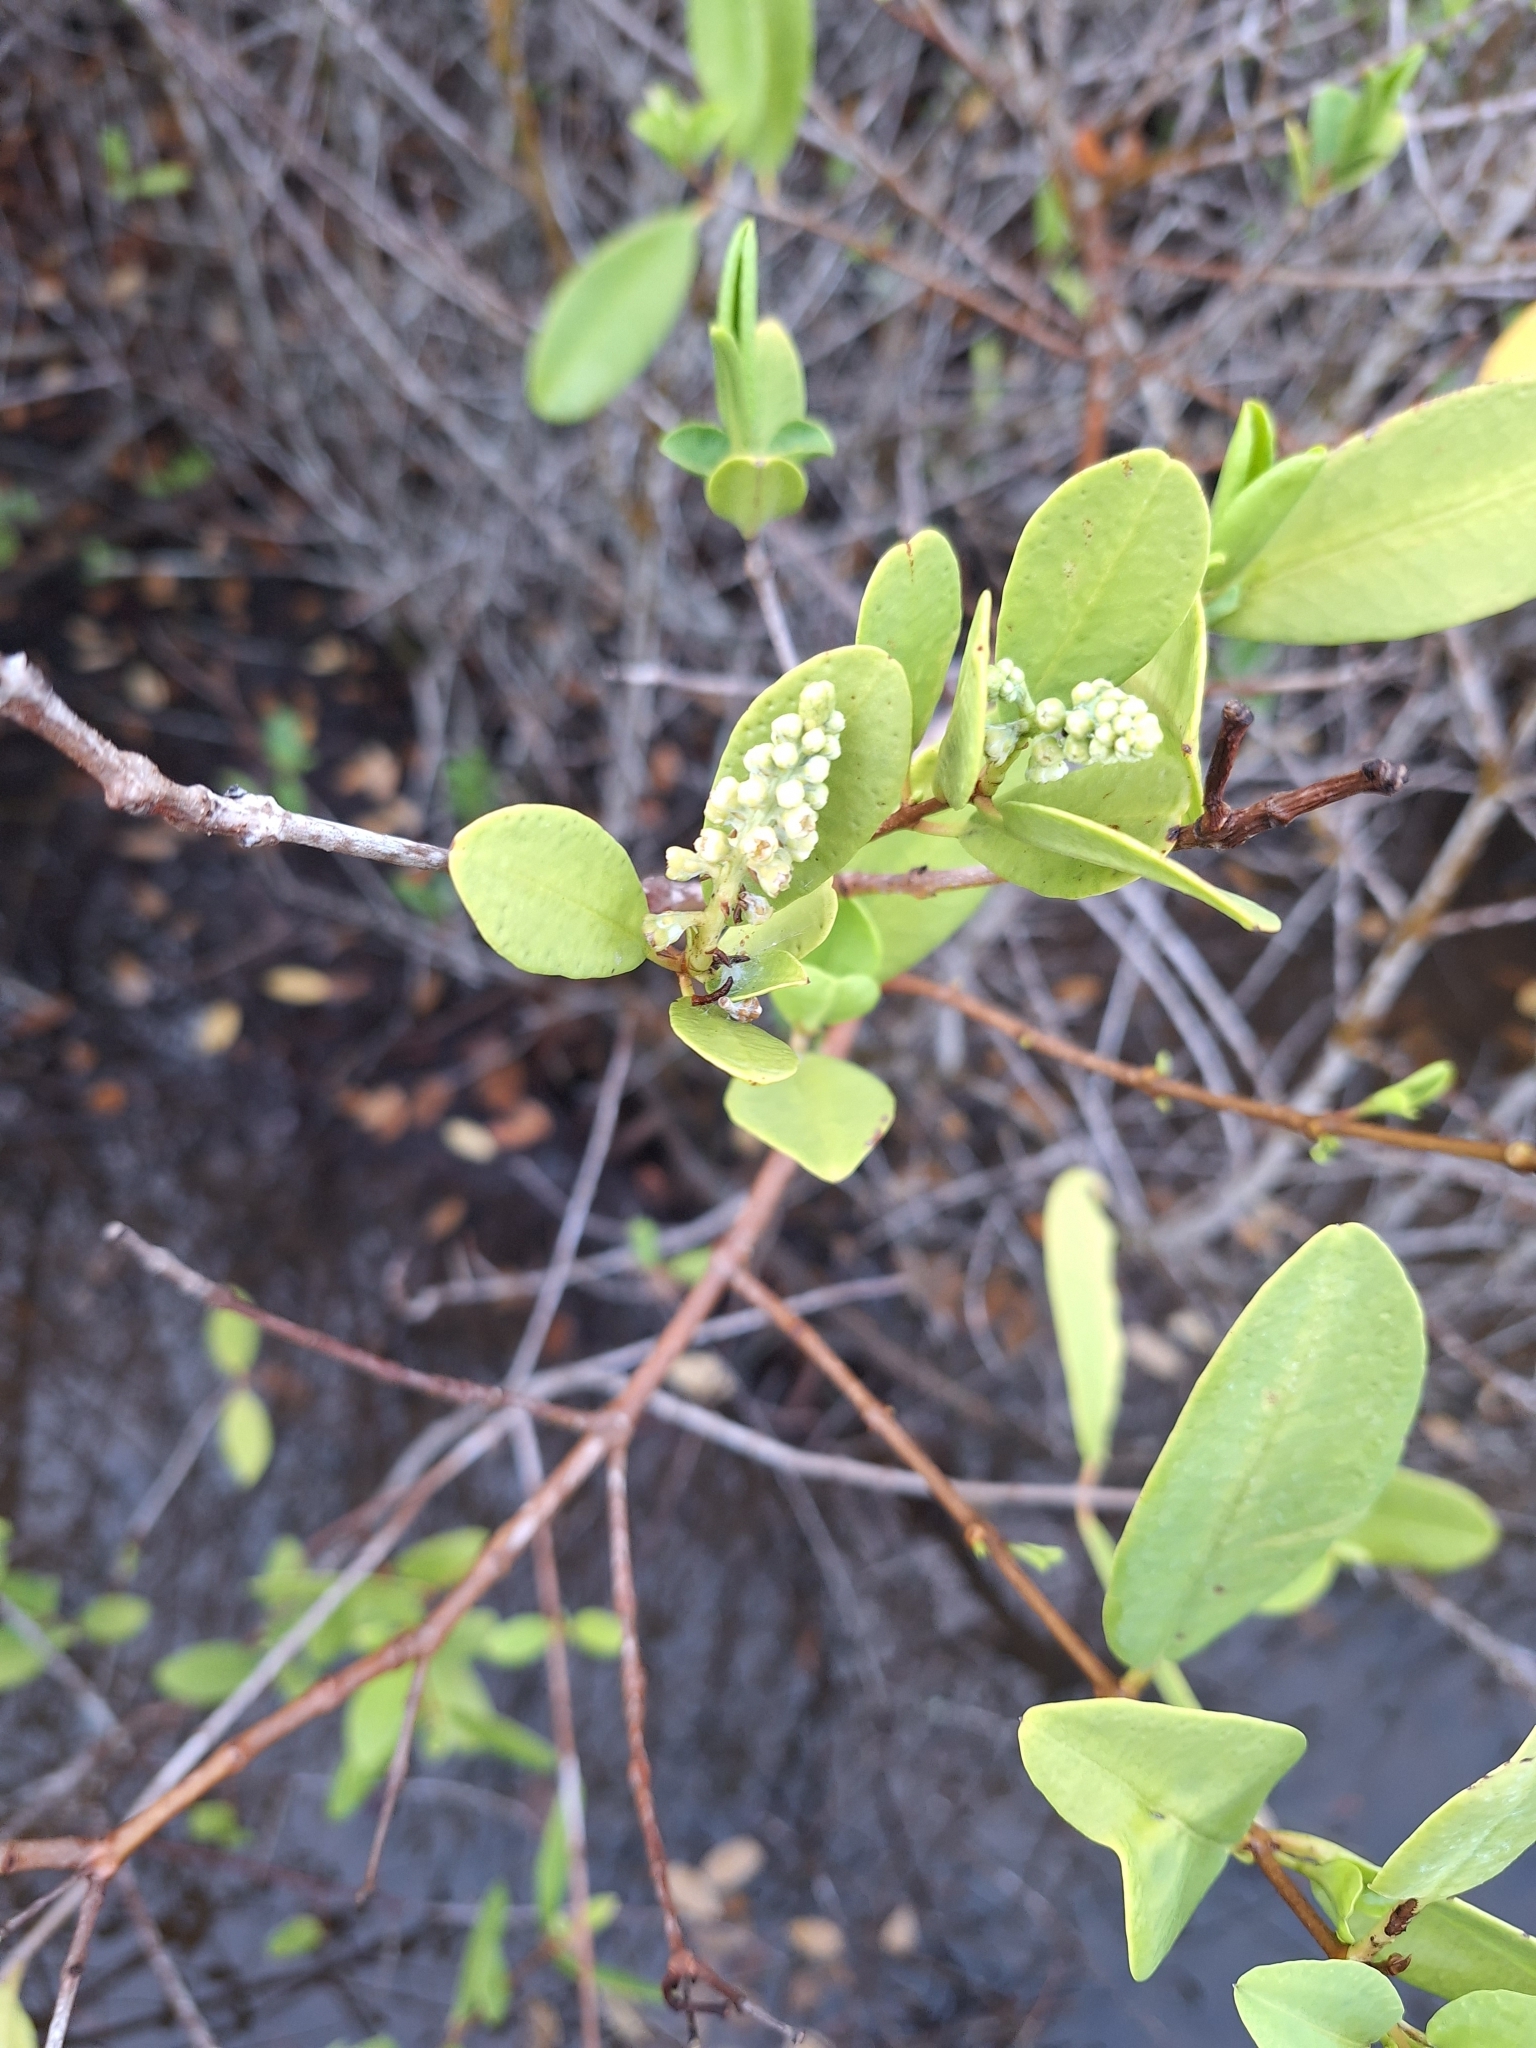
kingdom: Plantae
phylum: Tracheophyta
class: Magnoliopsida
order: Myrtales
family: Combretaceae
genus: Laguncularia
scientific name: Laguncularia racemosa
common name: White mangrove
